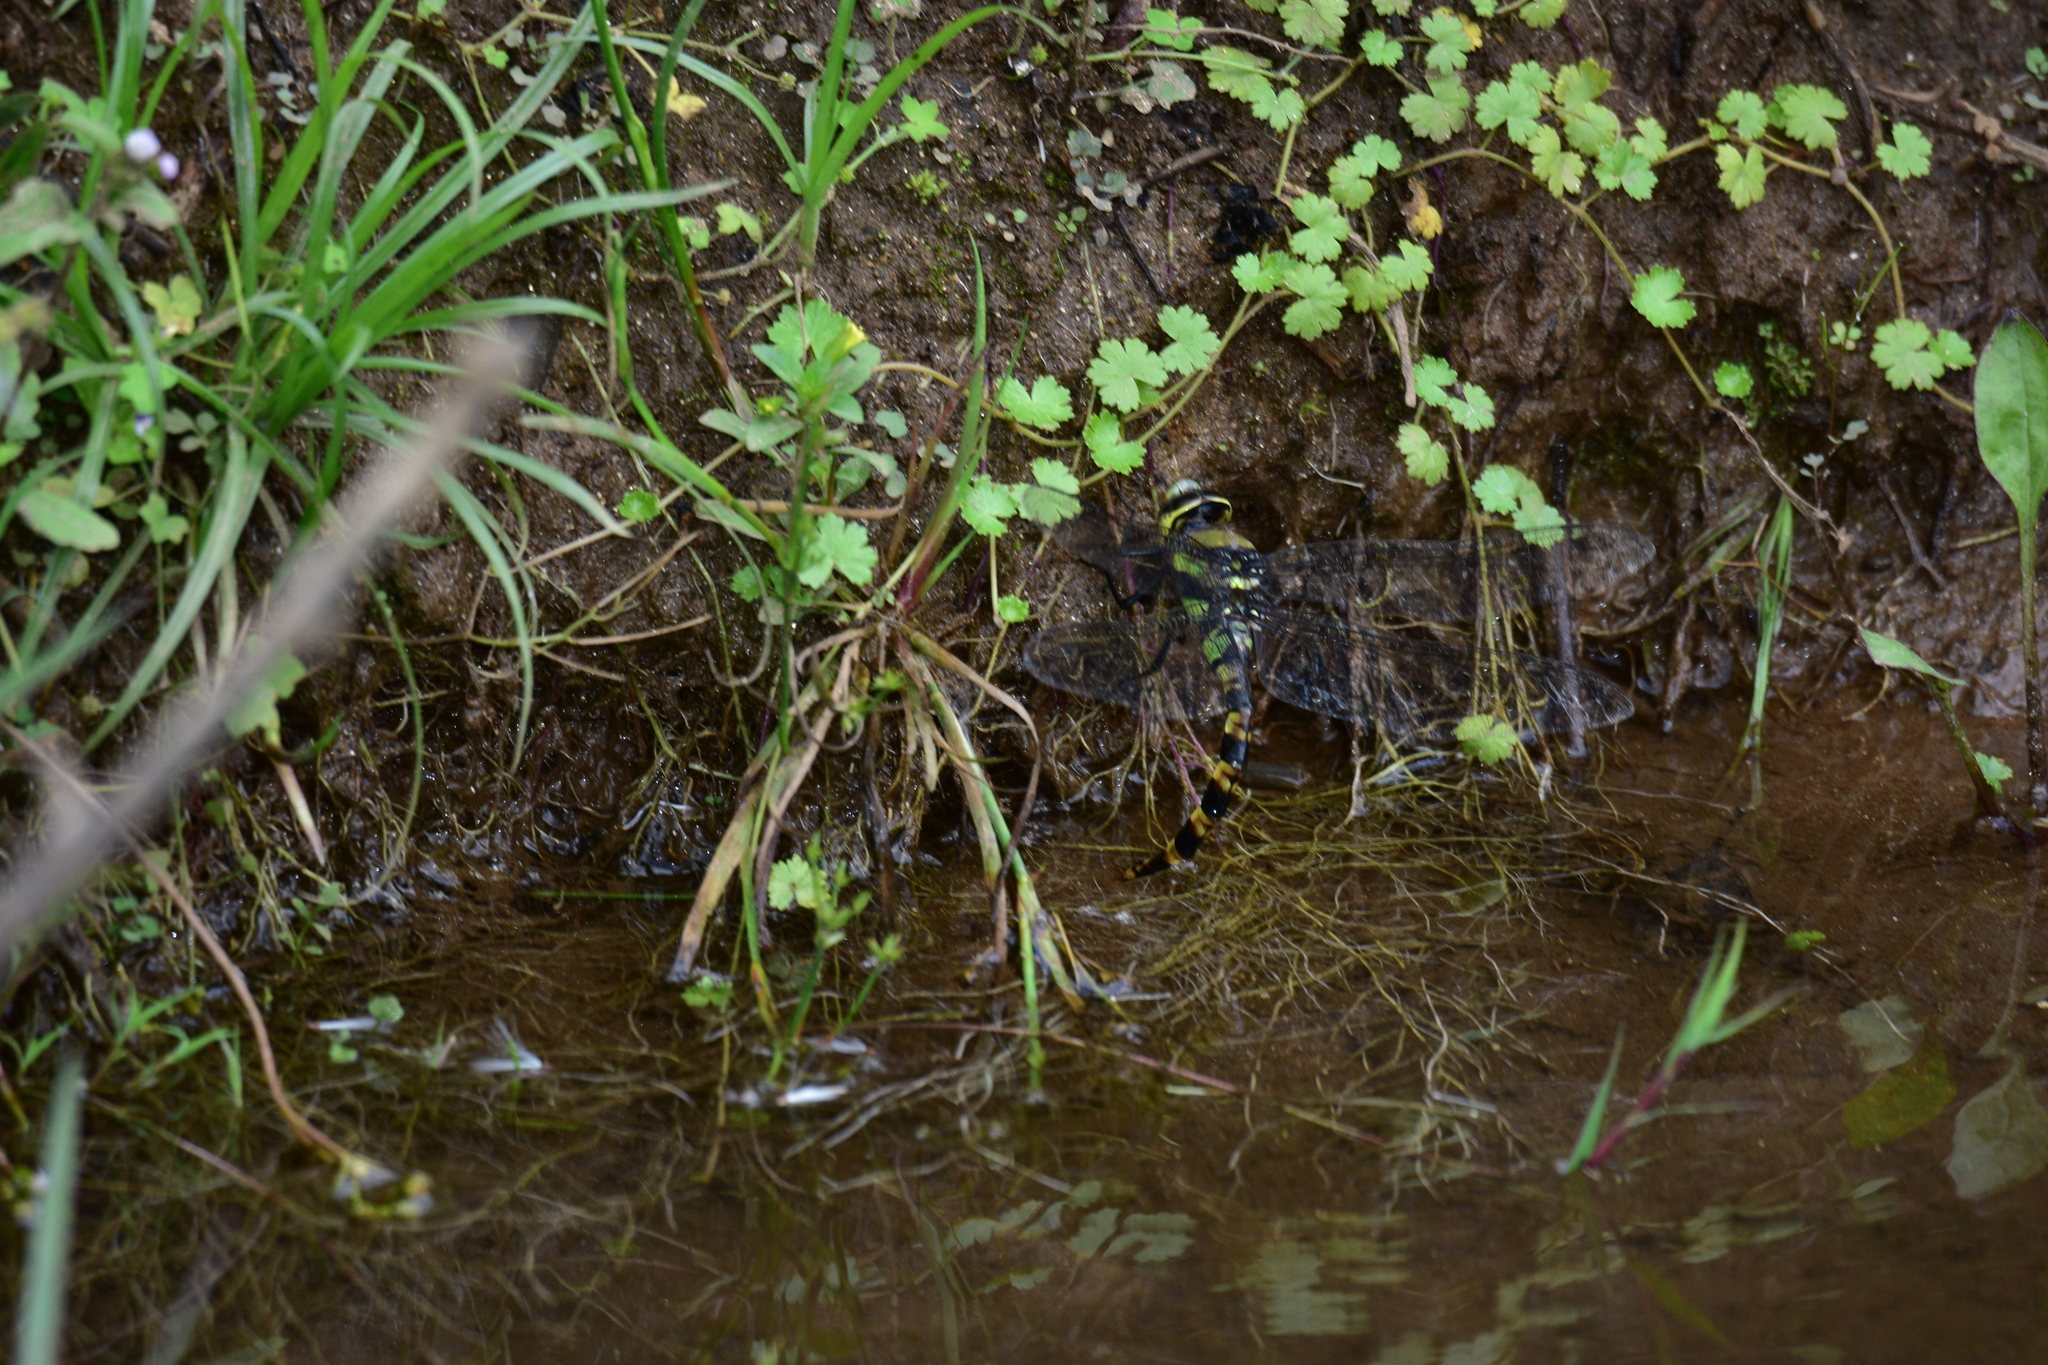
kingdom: Animalia
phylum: Arthropoda
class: Insecta
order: Odonata
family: Aeshnidae
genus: Anax
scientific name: Anax immaculifrons
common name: Magnificent emperor
